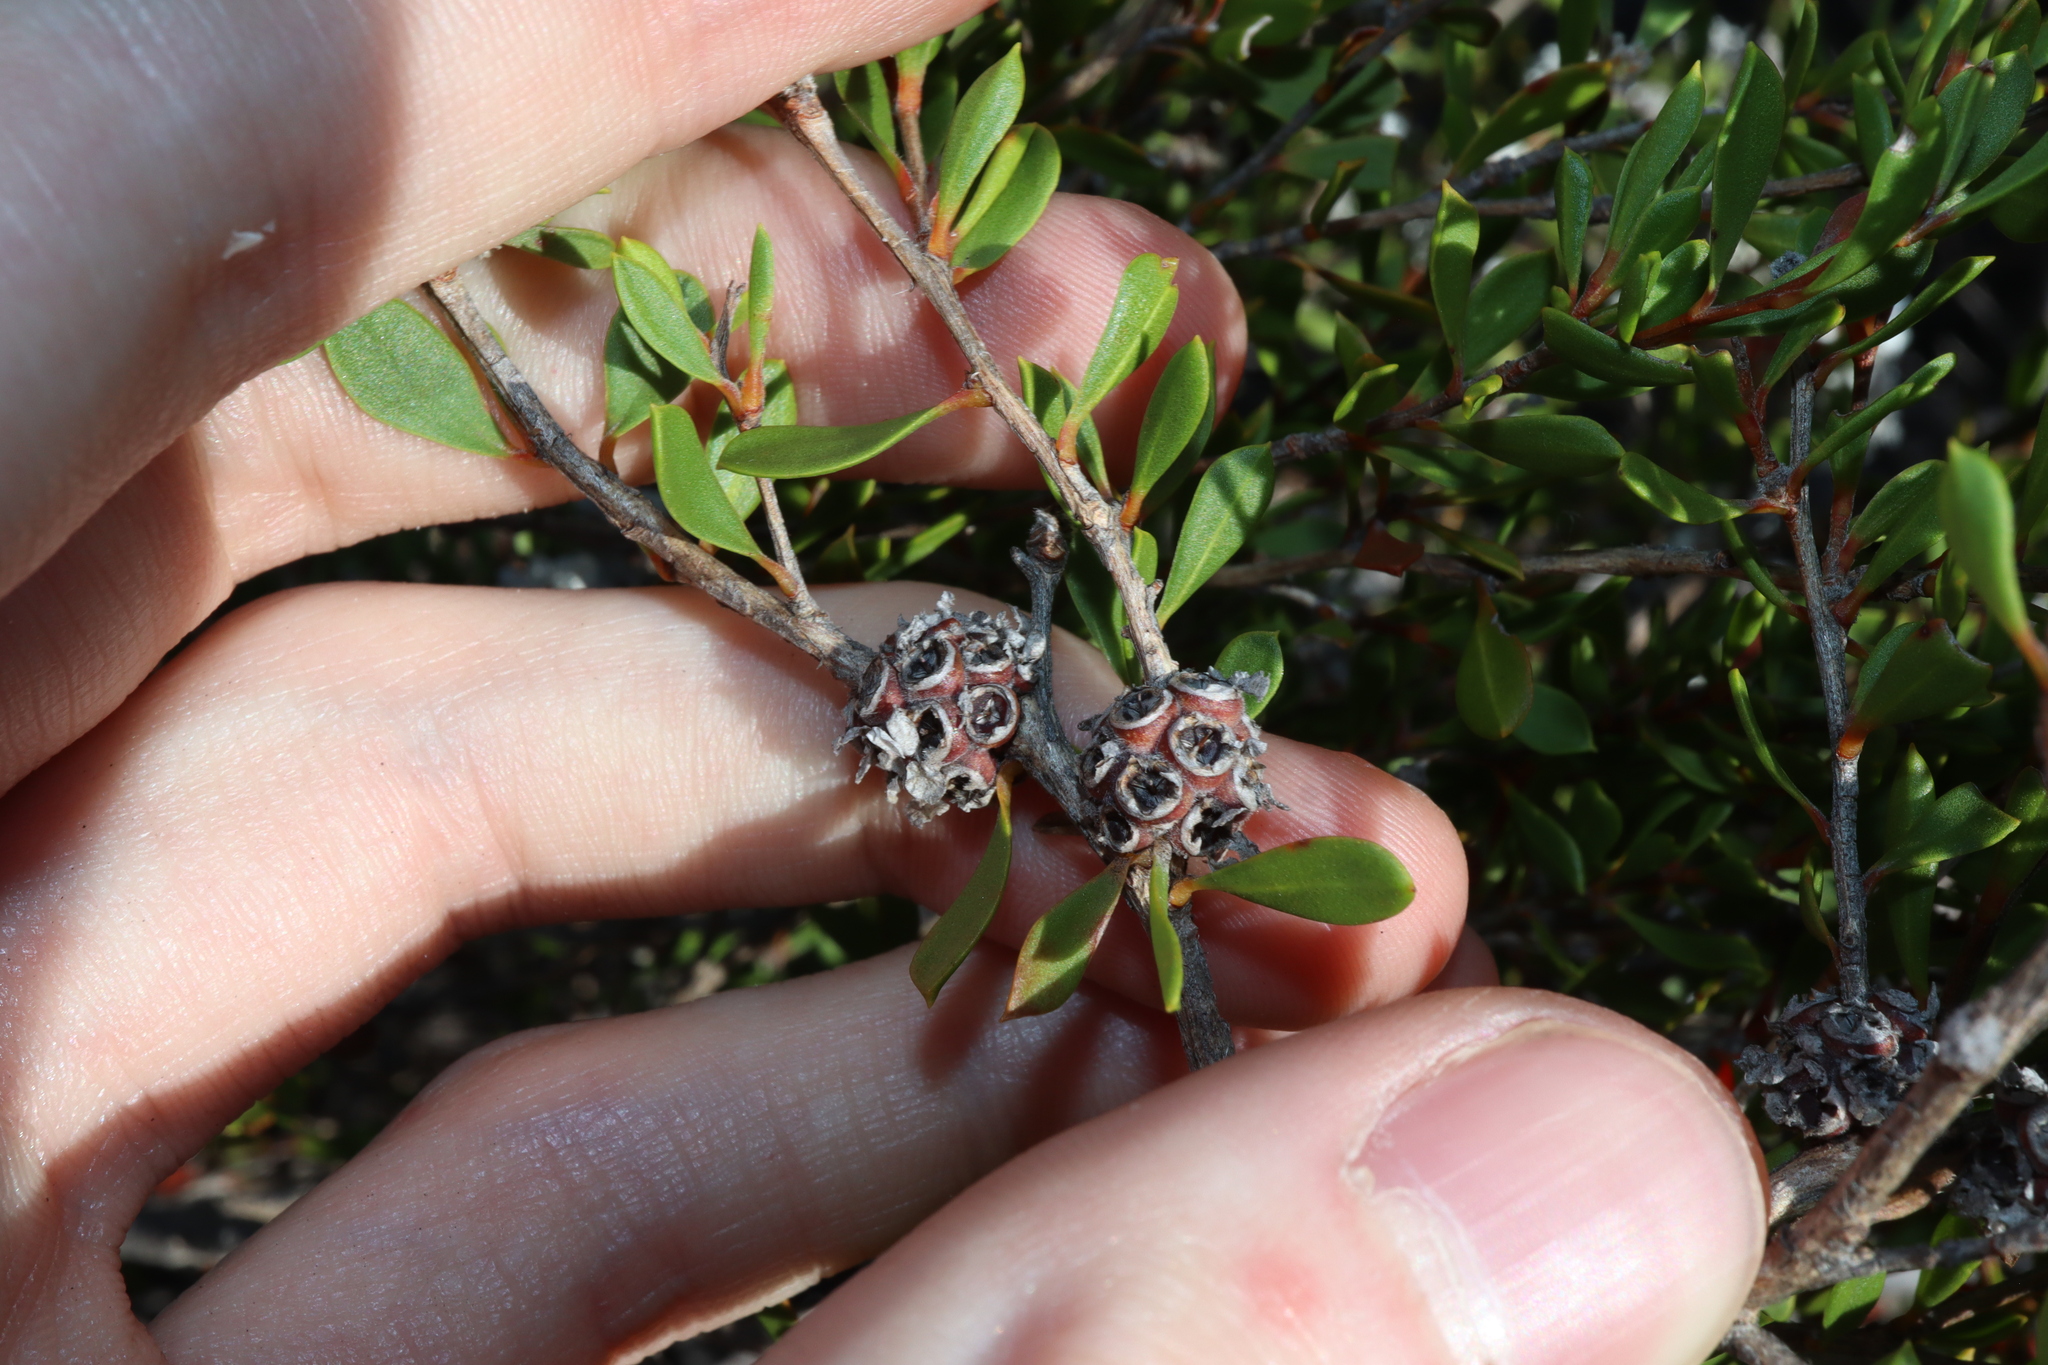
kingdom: Plantae
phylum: Tracheophyta
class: Magnoliopsida
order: Myrtales
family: Myrtaceae
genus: Taxandria
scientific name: Taxandria conspicua
